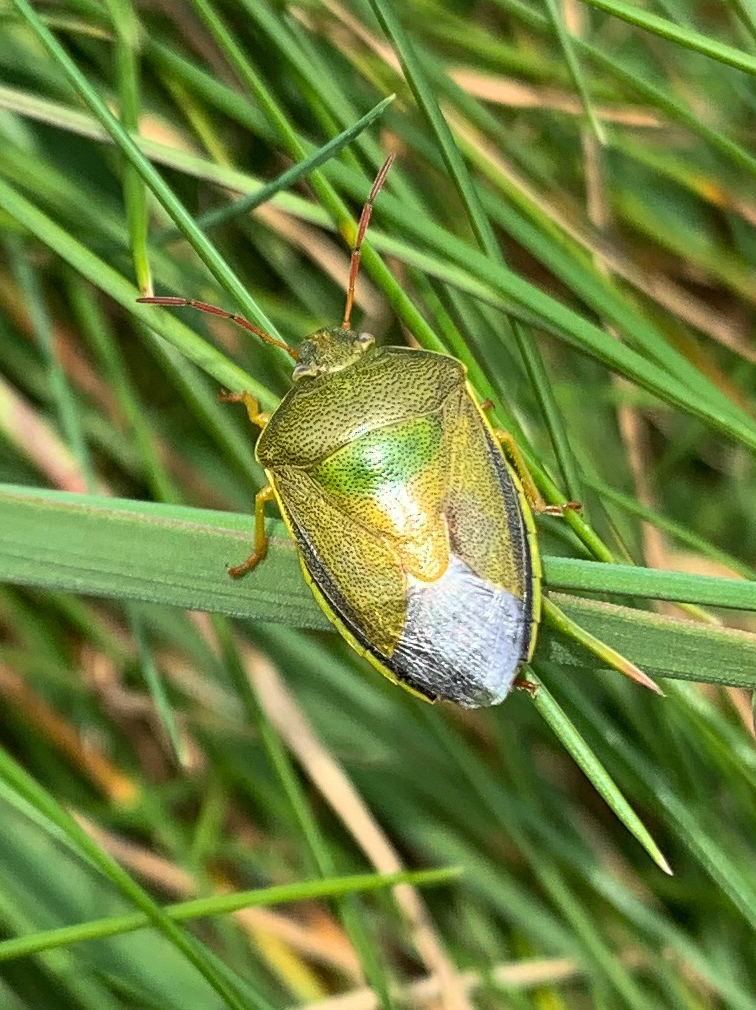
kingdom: Animalia
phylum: Arthropoda
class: Insecta
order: Hemiptera
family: Pentatomidae
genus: Piezodorus
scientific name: Piezodorus lituratus
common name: Stink bug
